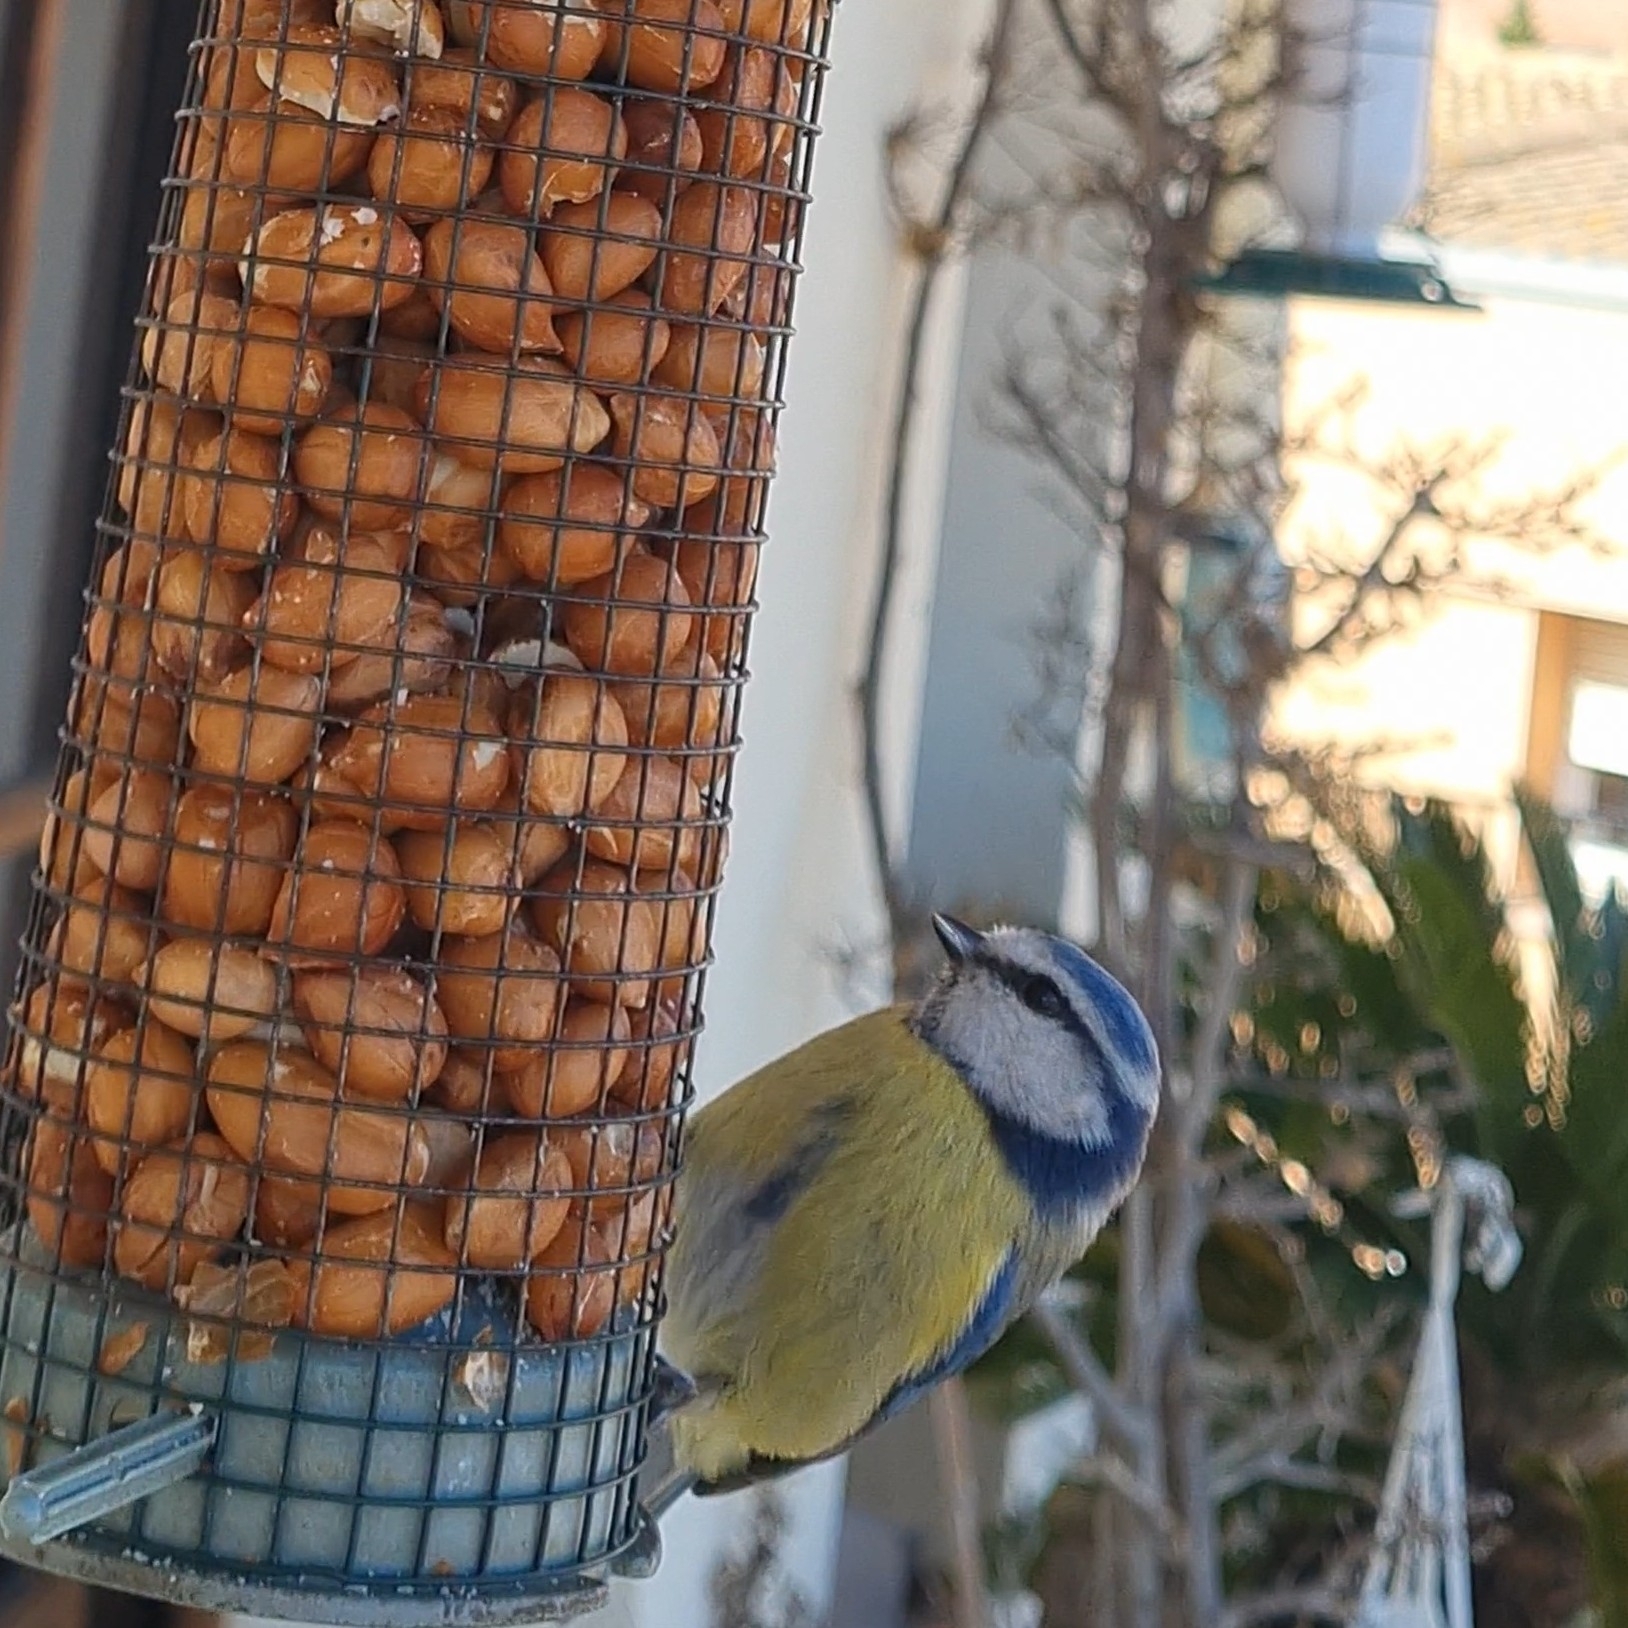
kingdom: Animalia
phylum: Chordata
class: Aves
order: Passeriformes
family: Paridae
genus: Cyanistes
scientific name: Cyanistes caeruleus
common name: Eurasian blue tit
